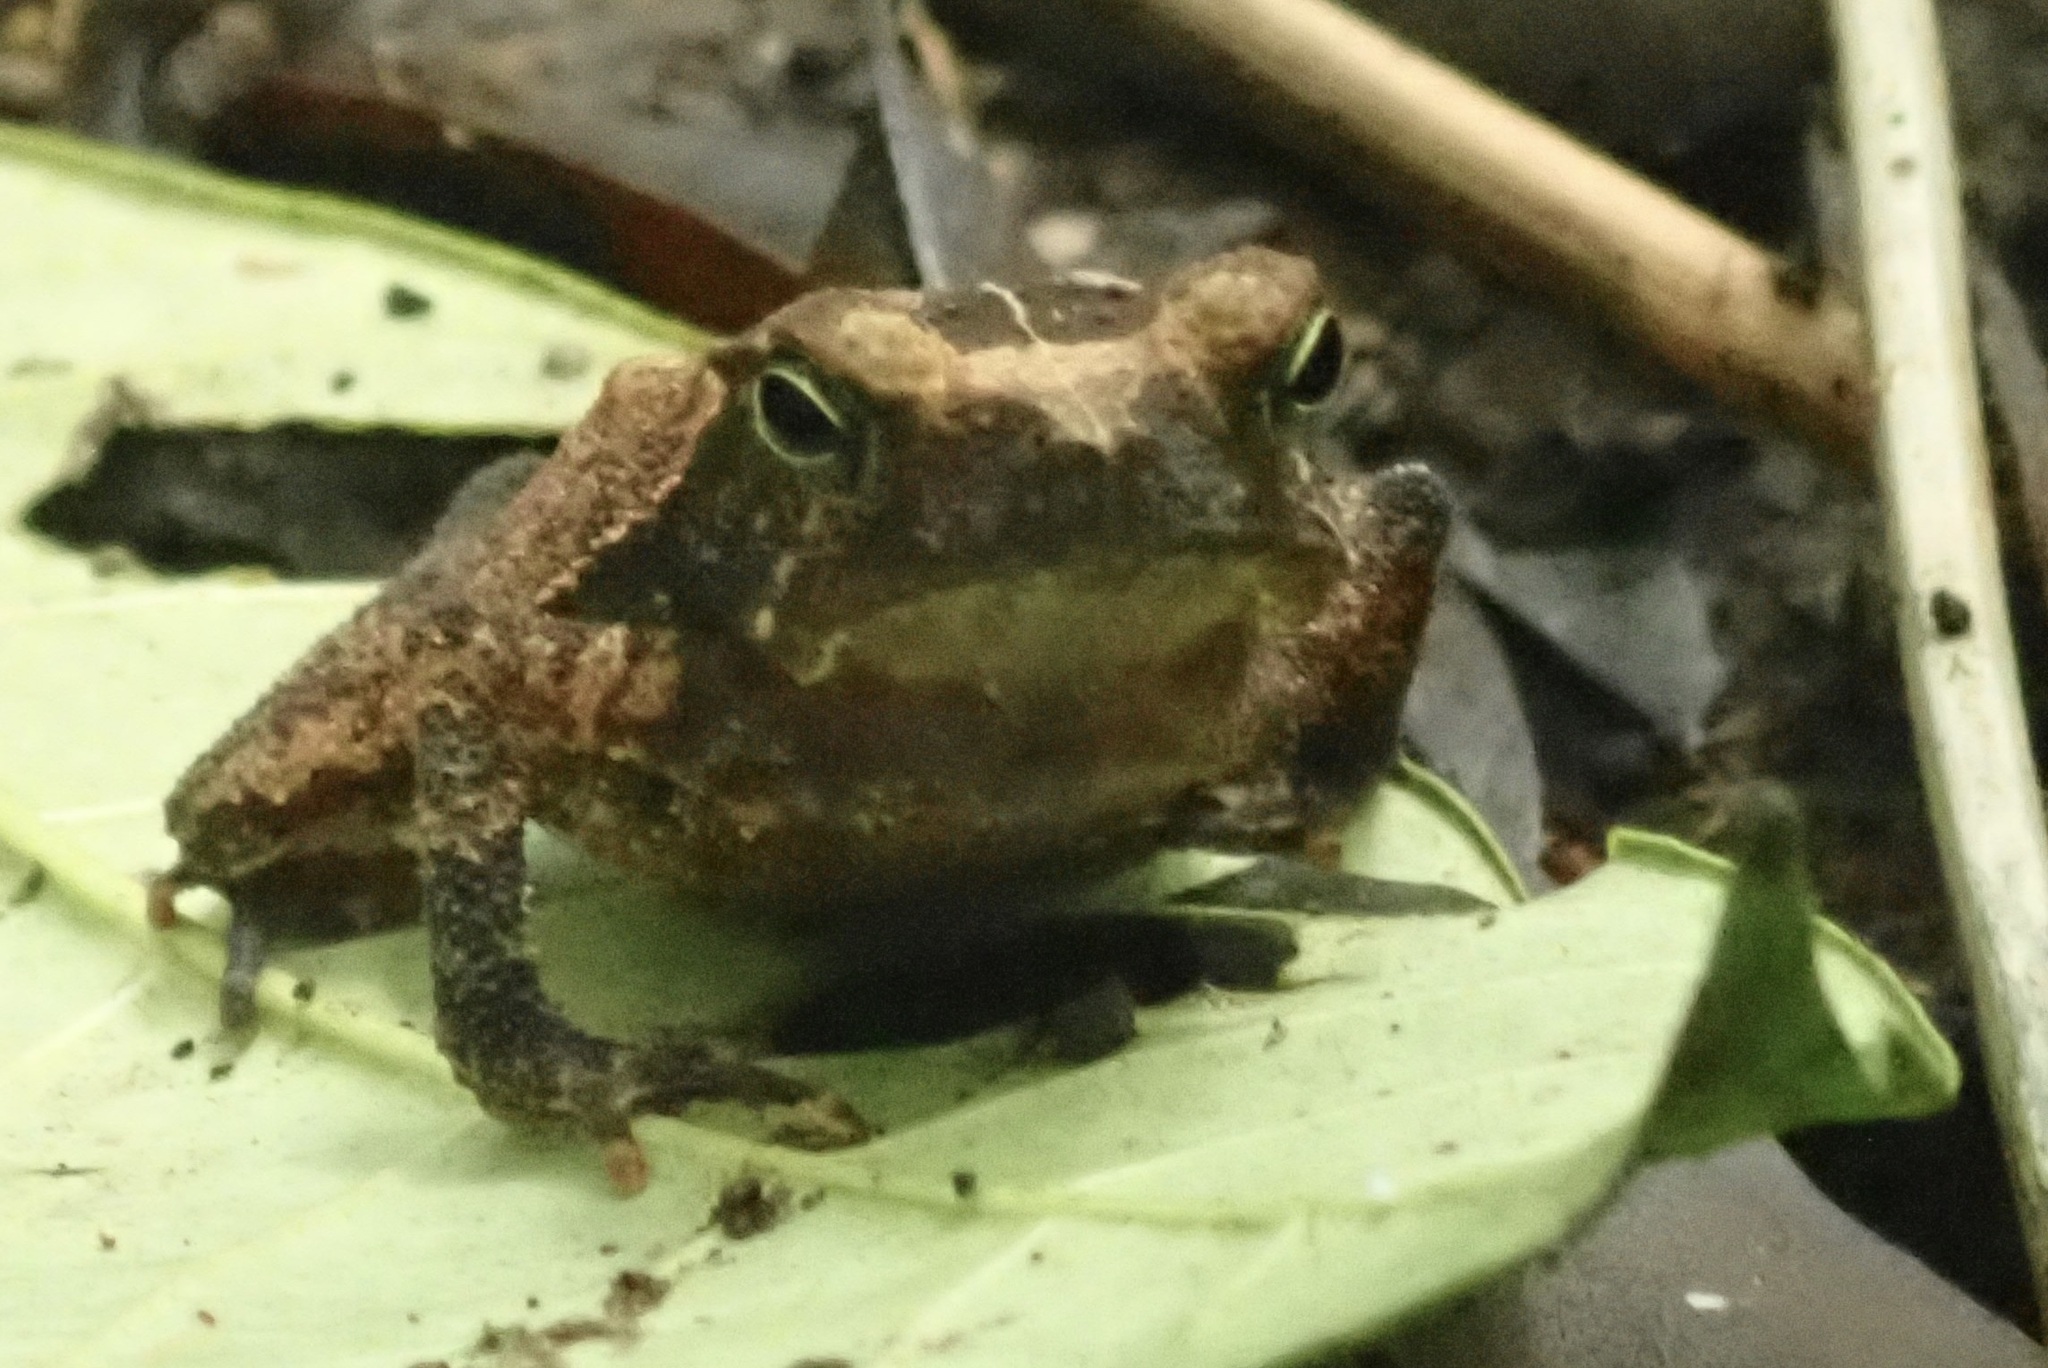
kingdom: Animalia
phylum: Chordata
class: Amphibia
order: Anura
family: Bufonidae
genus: Rhinella
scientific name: Rhinella alata
